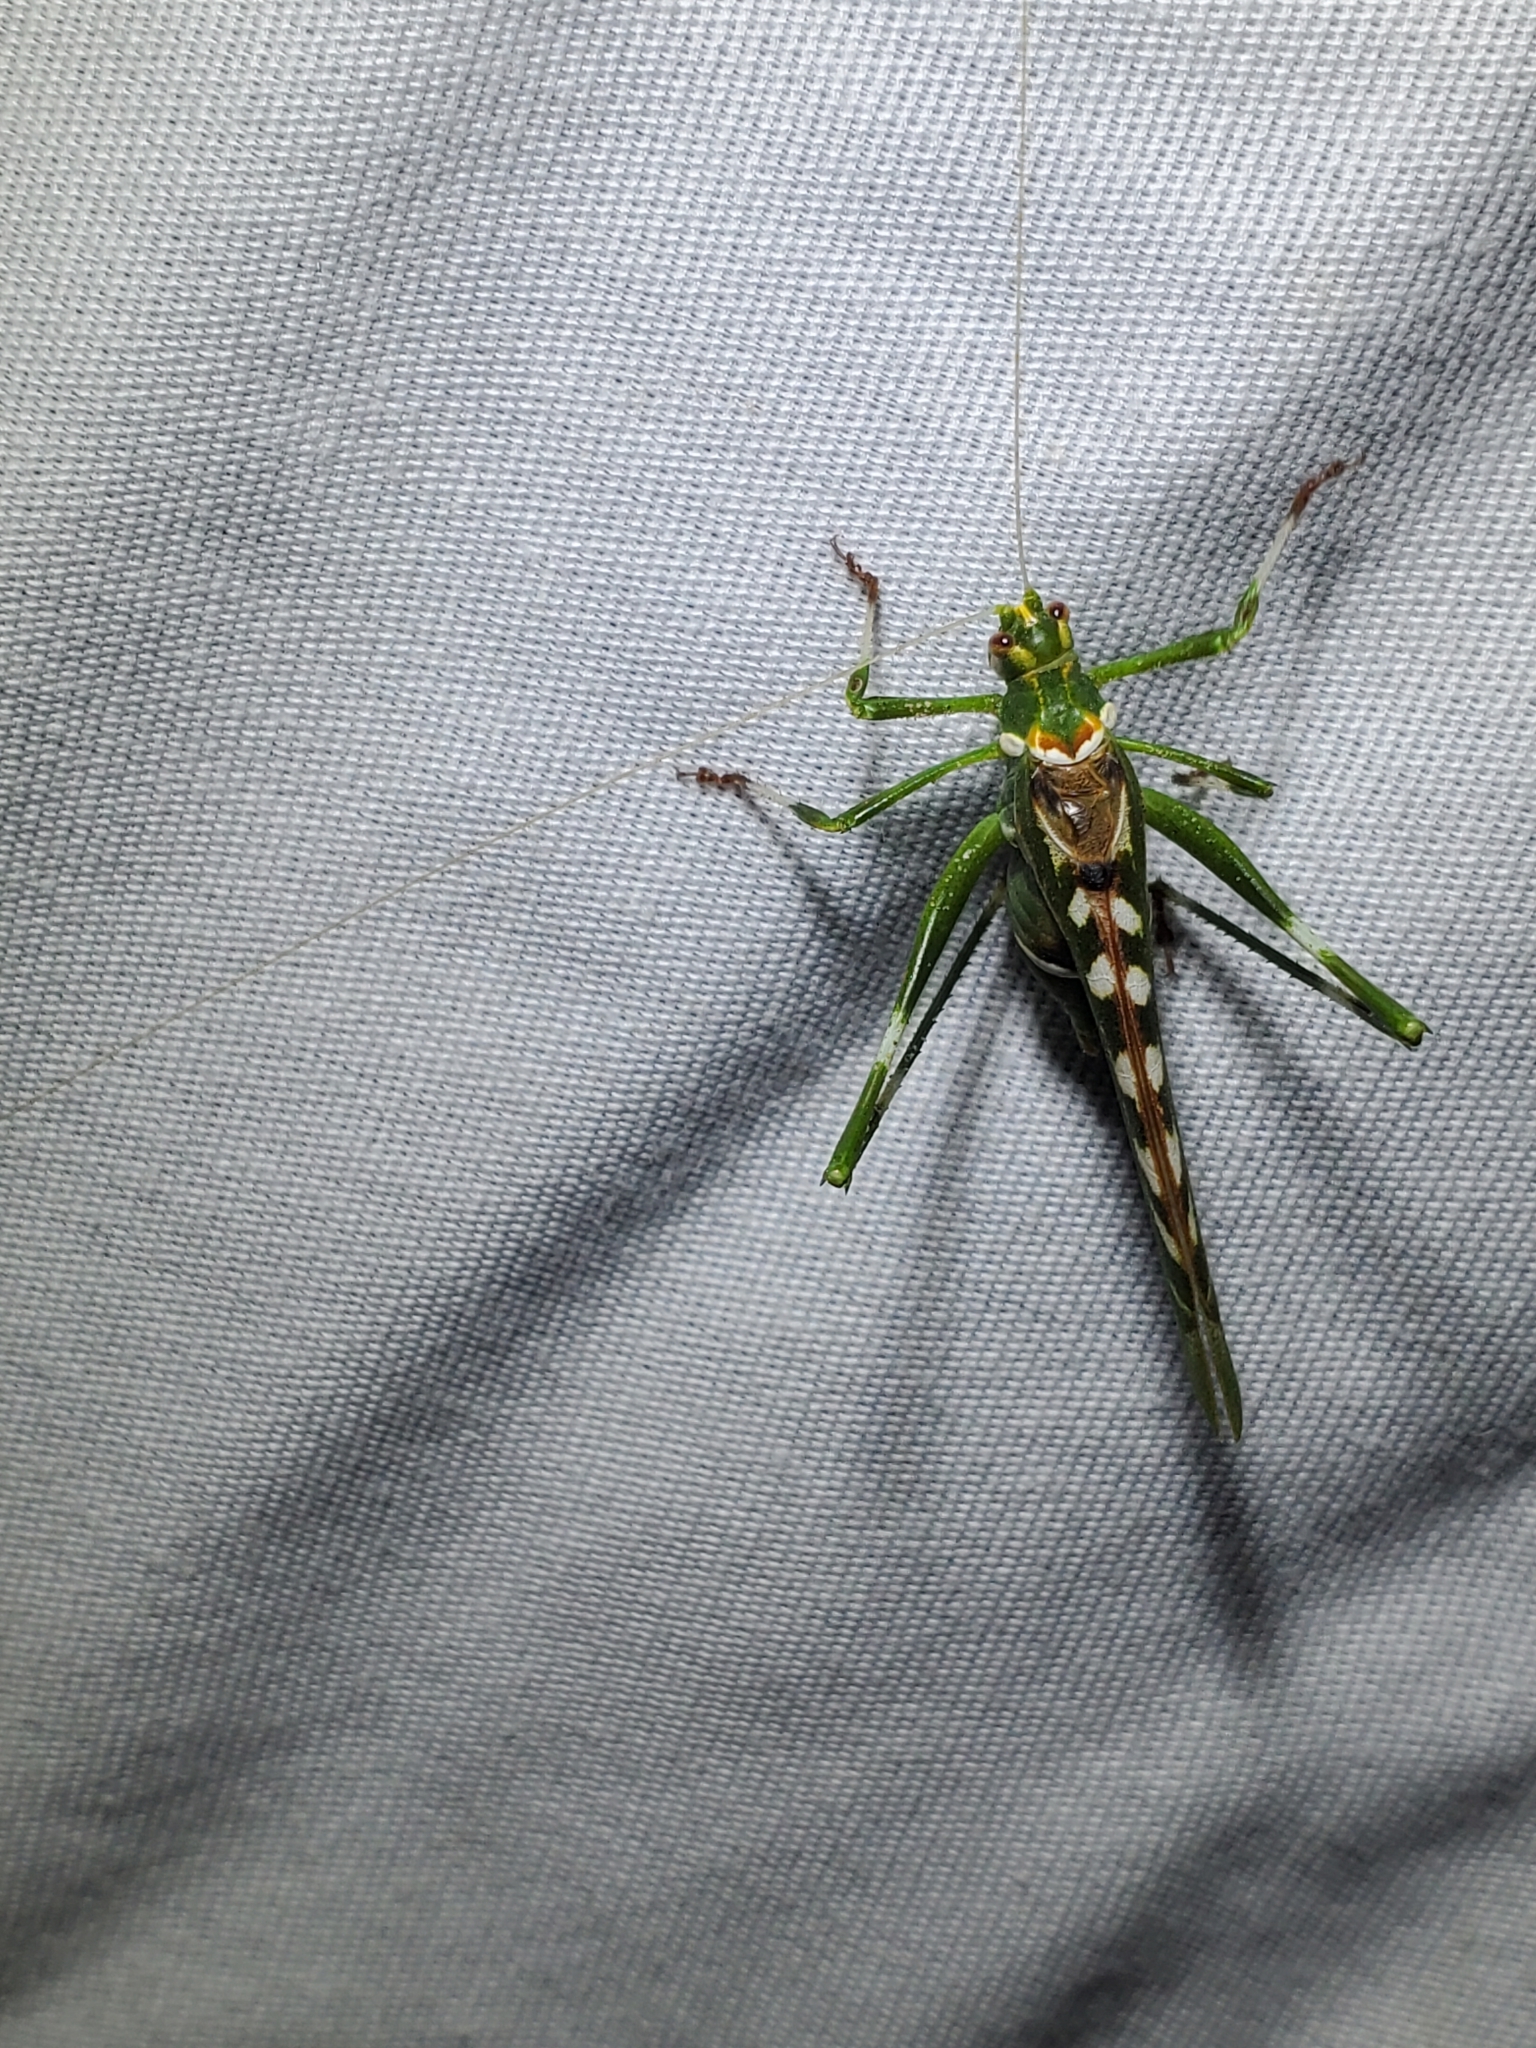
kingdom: Animalia
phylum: Arthropoda
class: Insecta
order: Orthoptera
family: Tettigoniidae
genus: Insara
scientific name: Insara covilleae
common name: Creosote bush katydid
